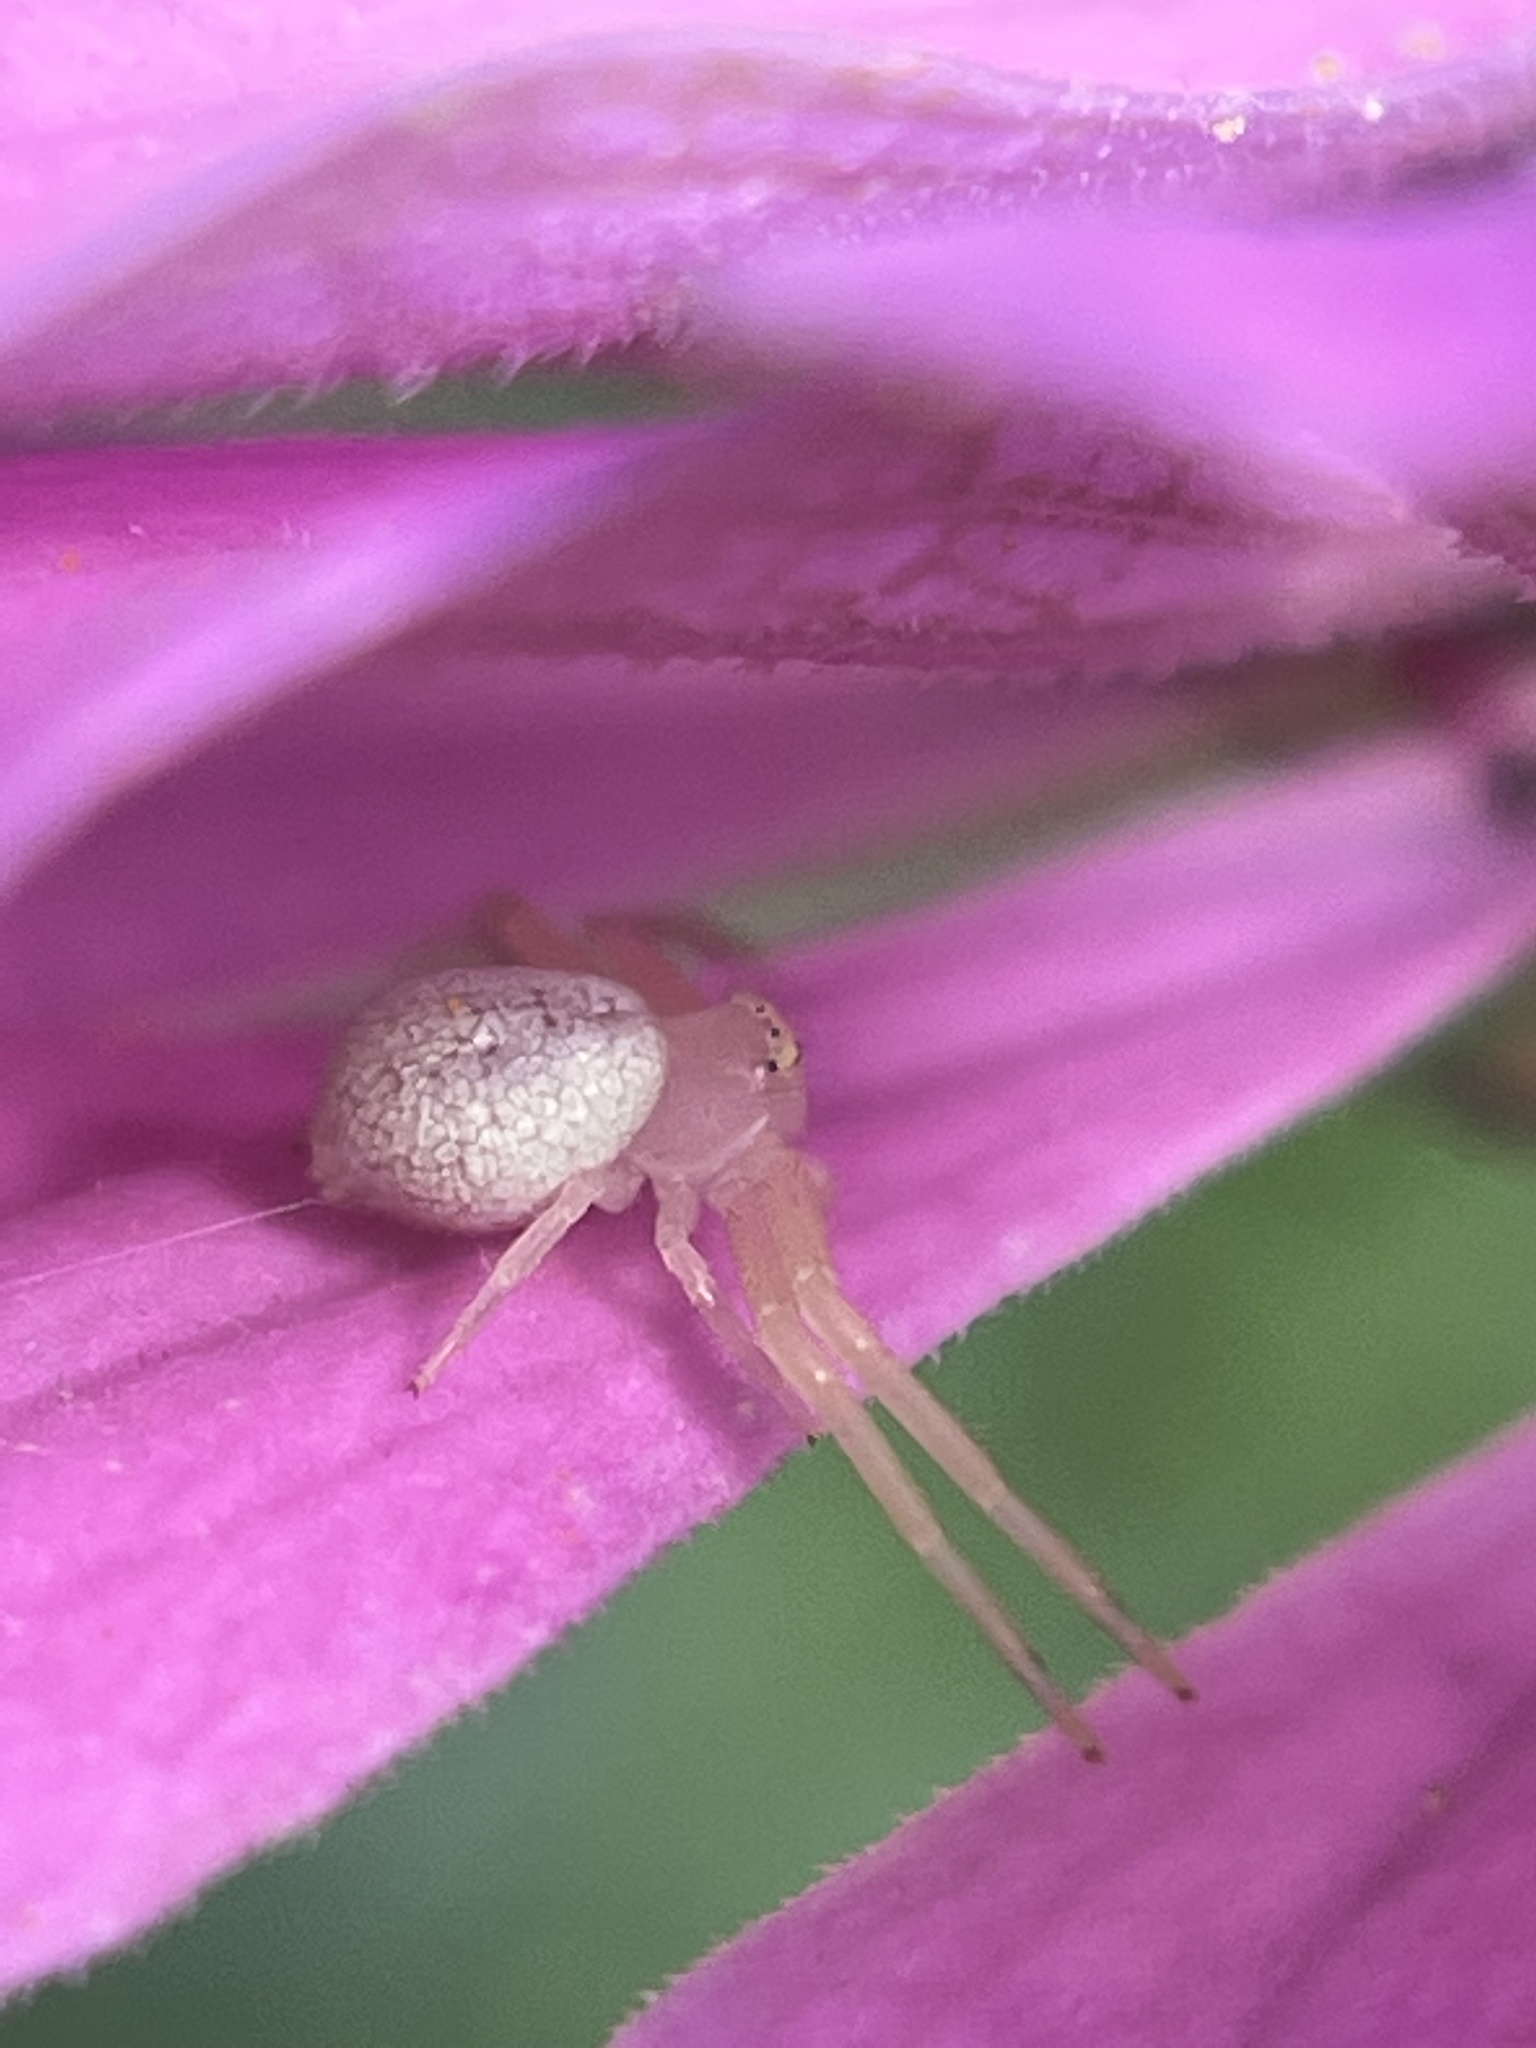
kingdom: Animalia
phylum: Arthropoda
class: Arachnida
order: Araneae
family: Thomisidae
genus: Misumessus
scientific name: Misumessus oblongus
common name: American green crab spider
